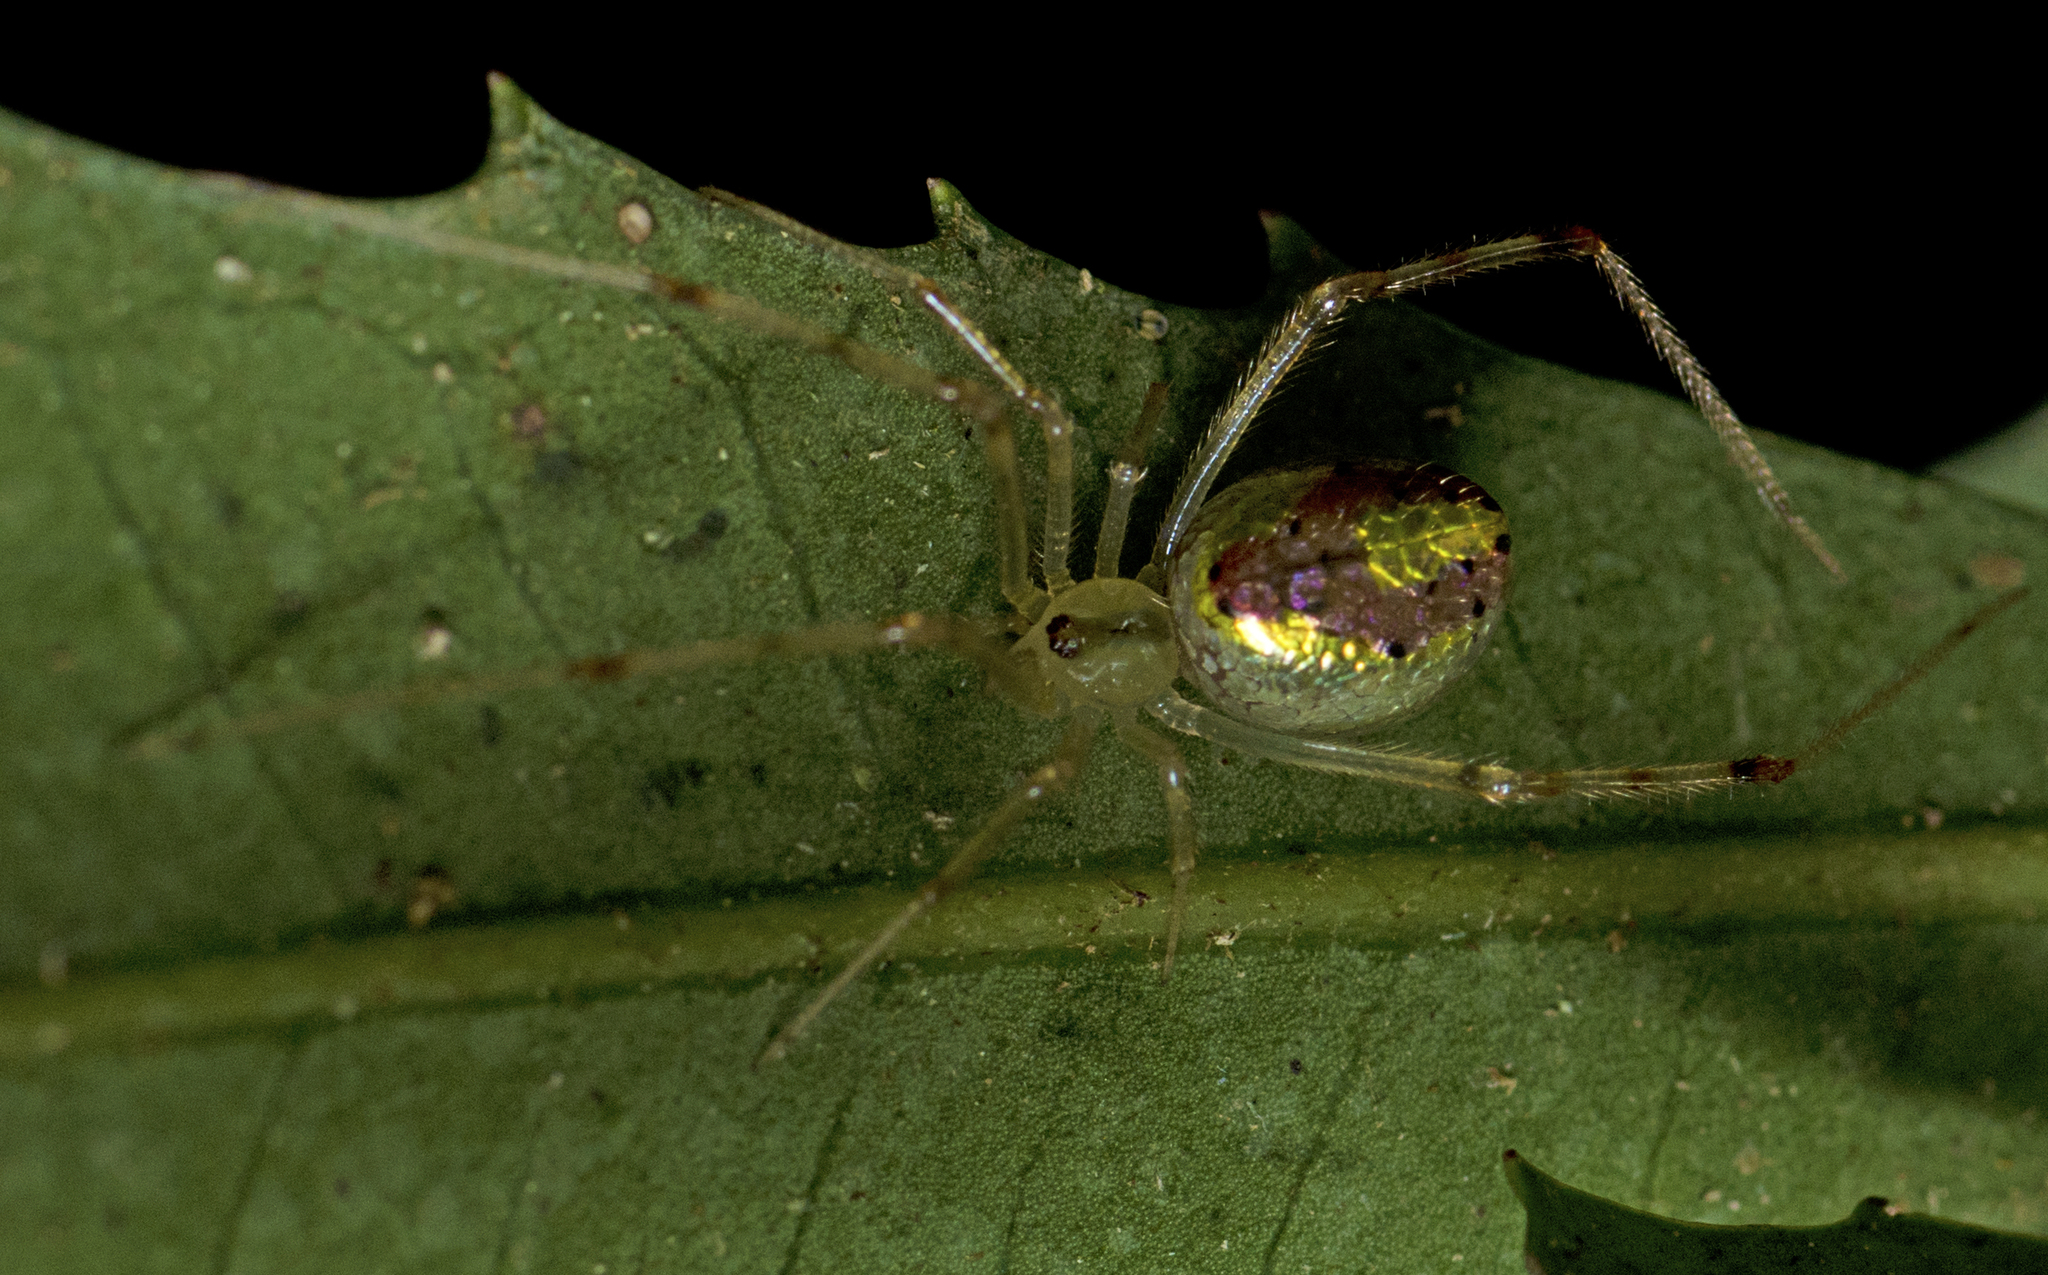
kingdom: Animalia
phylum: Arthropoda
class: Arachnida
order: Araneae
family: Theridiidae
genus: Thwaitesia
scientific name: Thwaitesia nigronodosa
